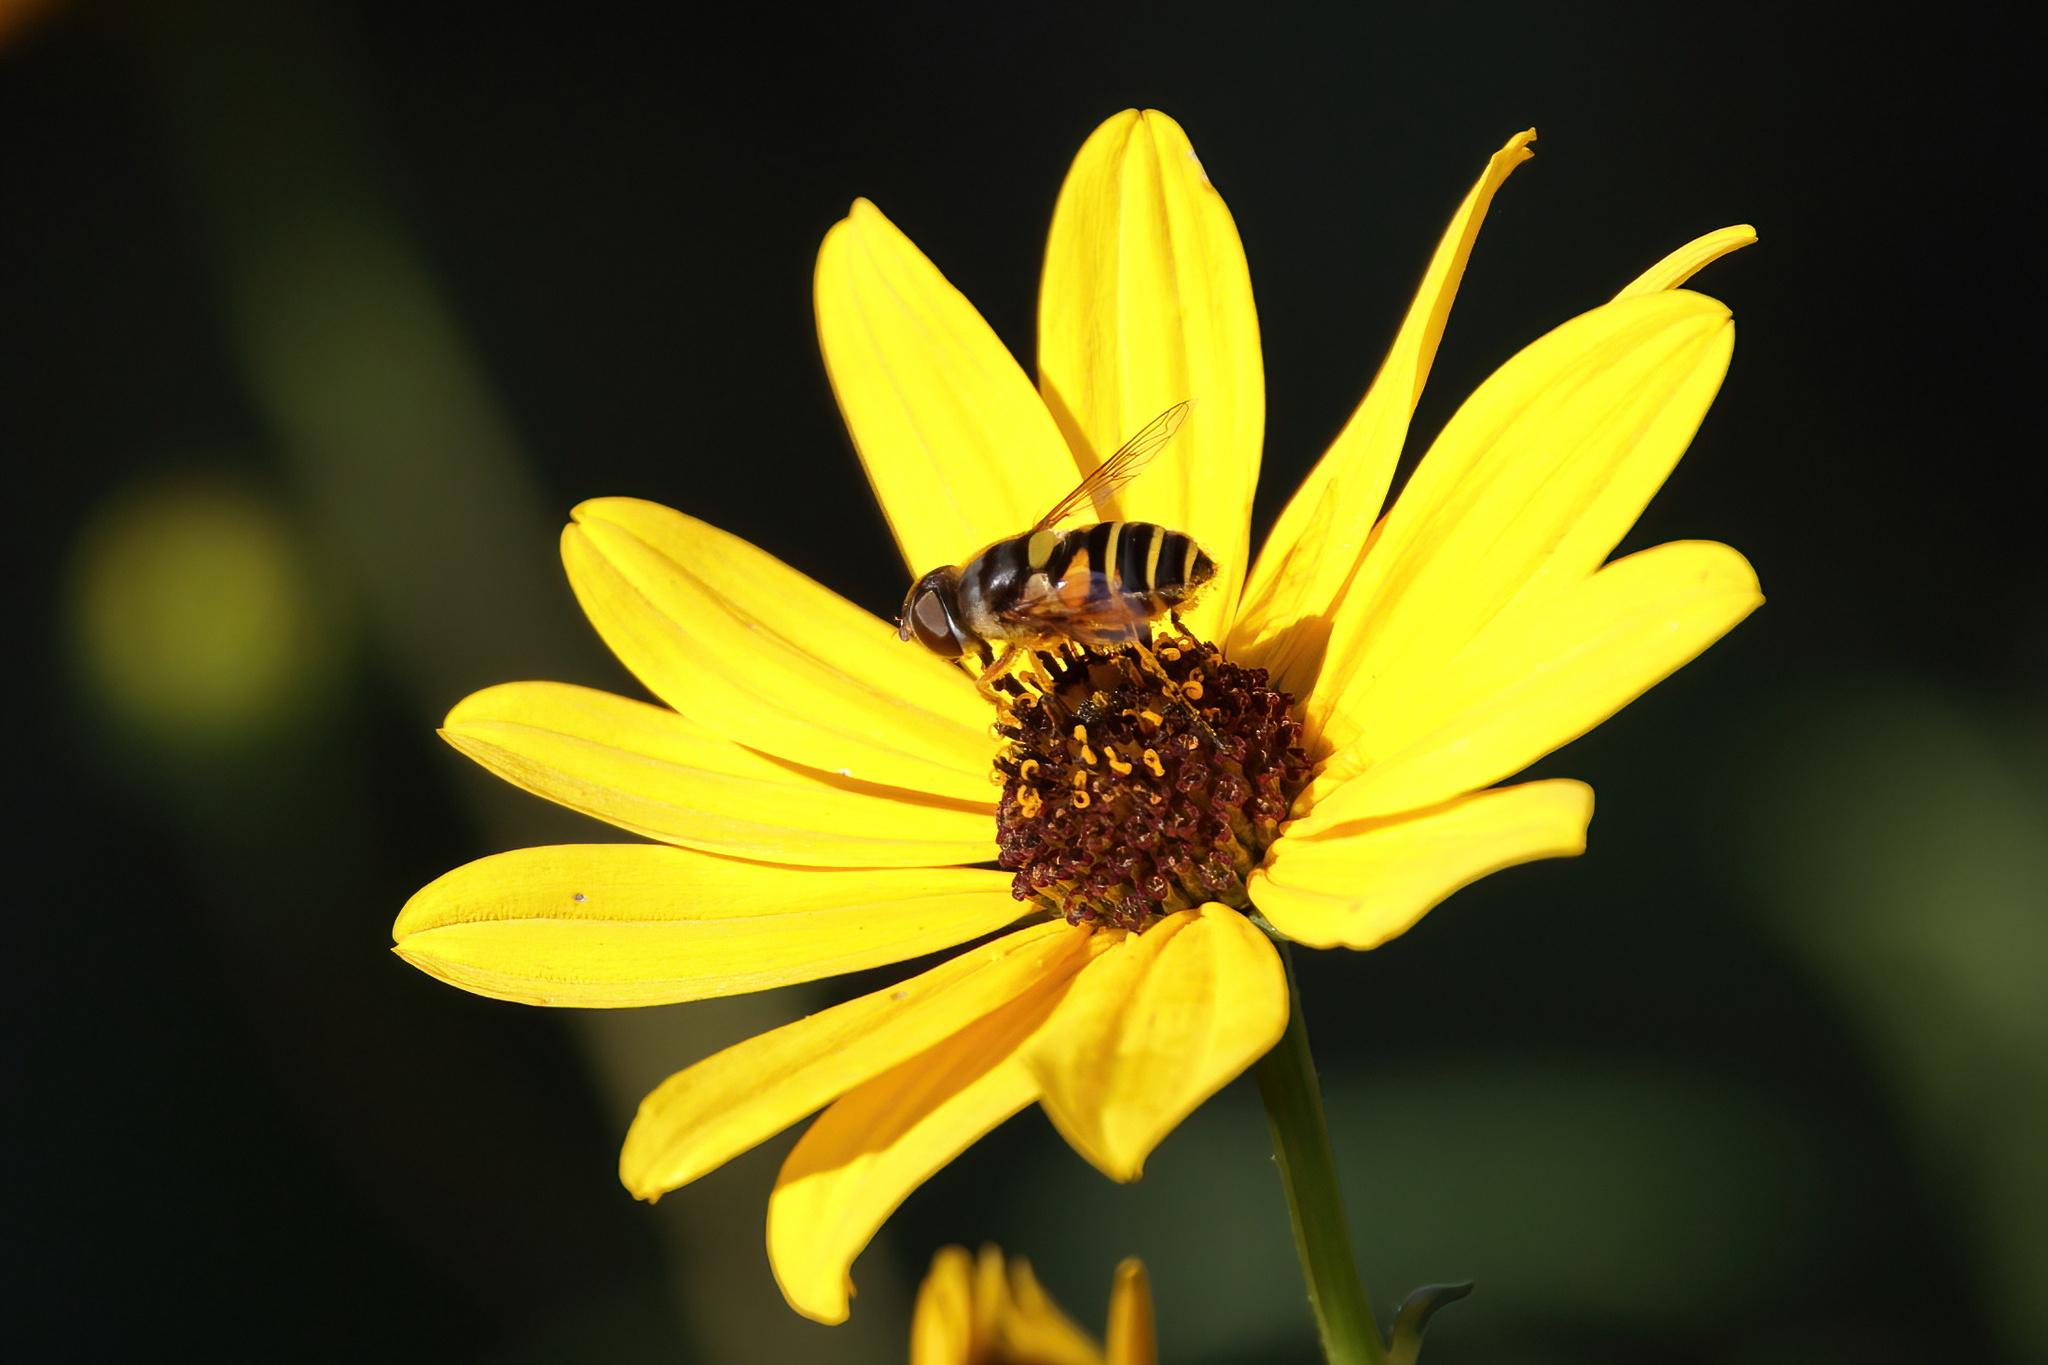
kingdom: Animalia
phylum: Arthropoda
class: Insecta
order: Diptera
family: Syrphidae
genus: Eristalis
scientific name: Eristalis transversa
